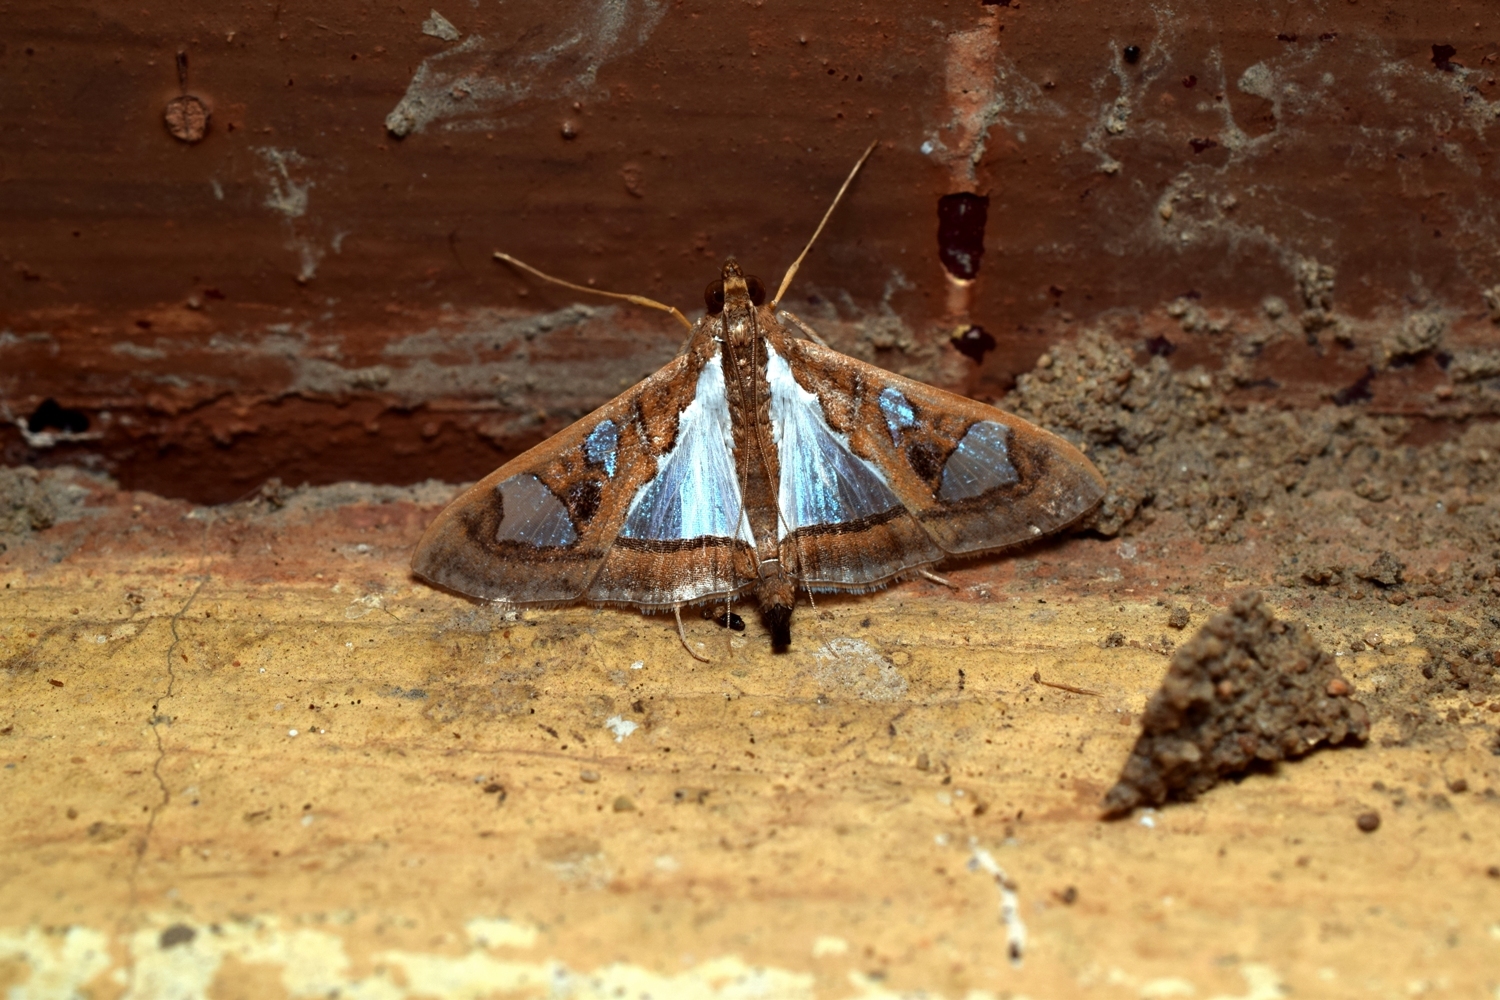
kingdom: Animalia
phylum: Arthropoda
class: Insecta
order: Lepidoptera
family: Crambidae
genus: Glyphodes
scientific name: Glyphodes bivitralis
